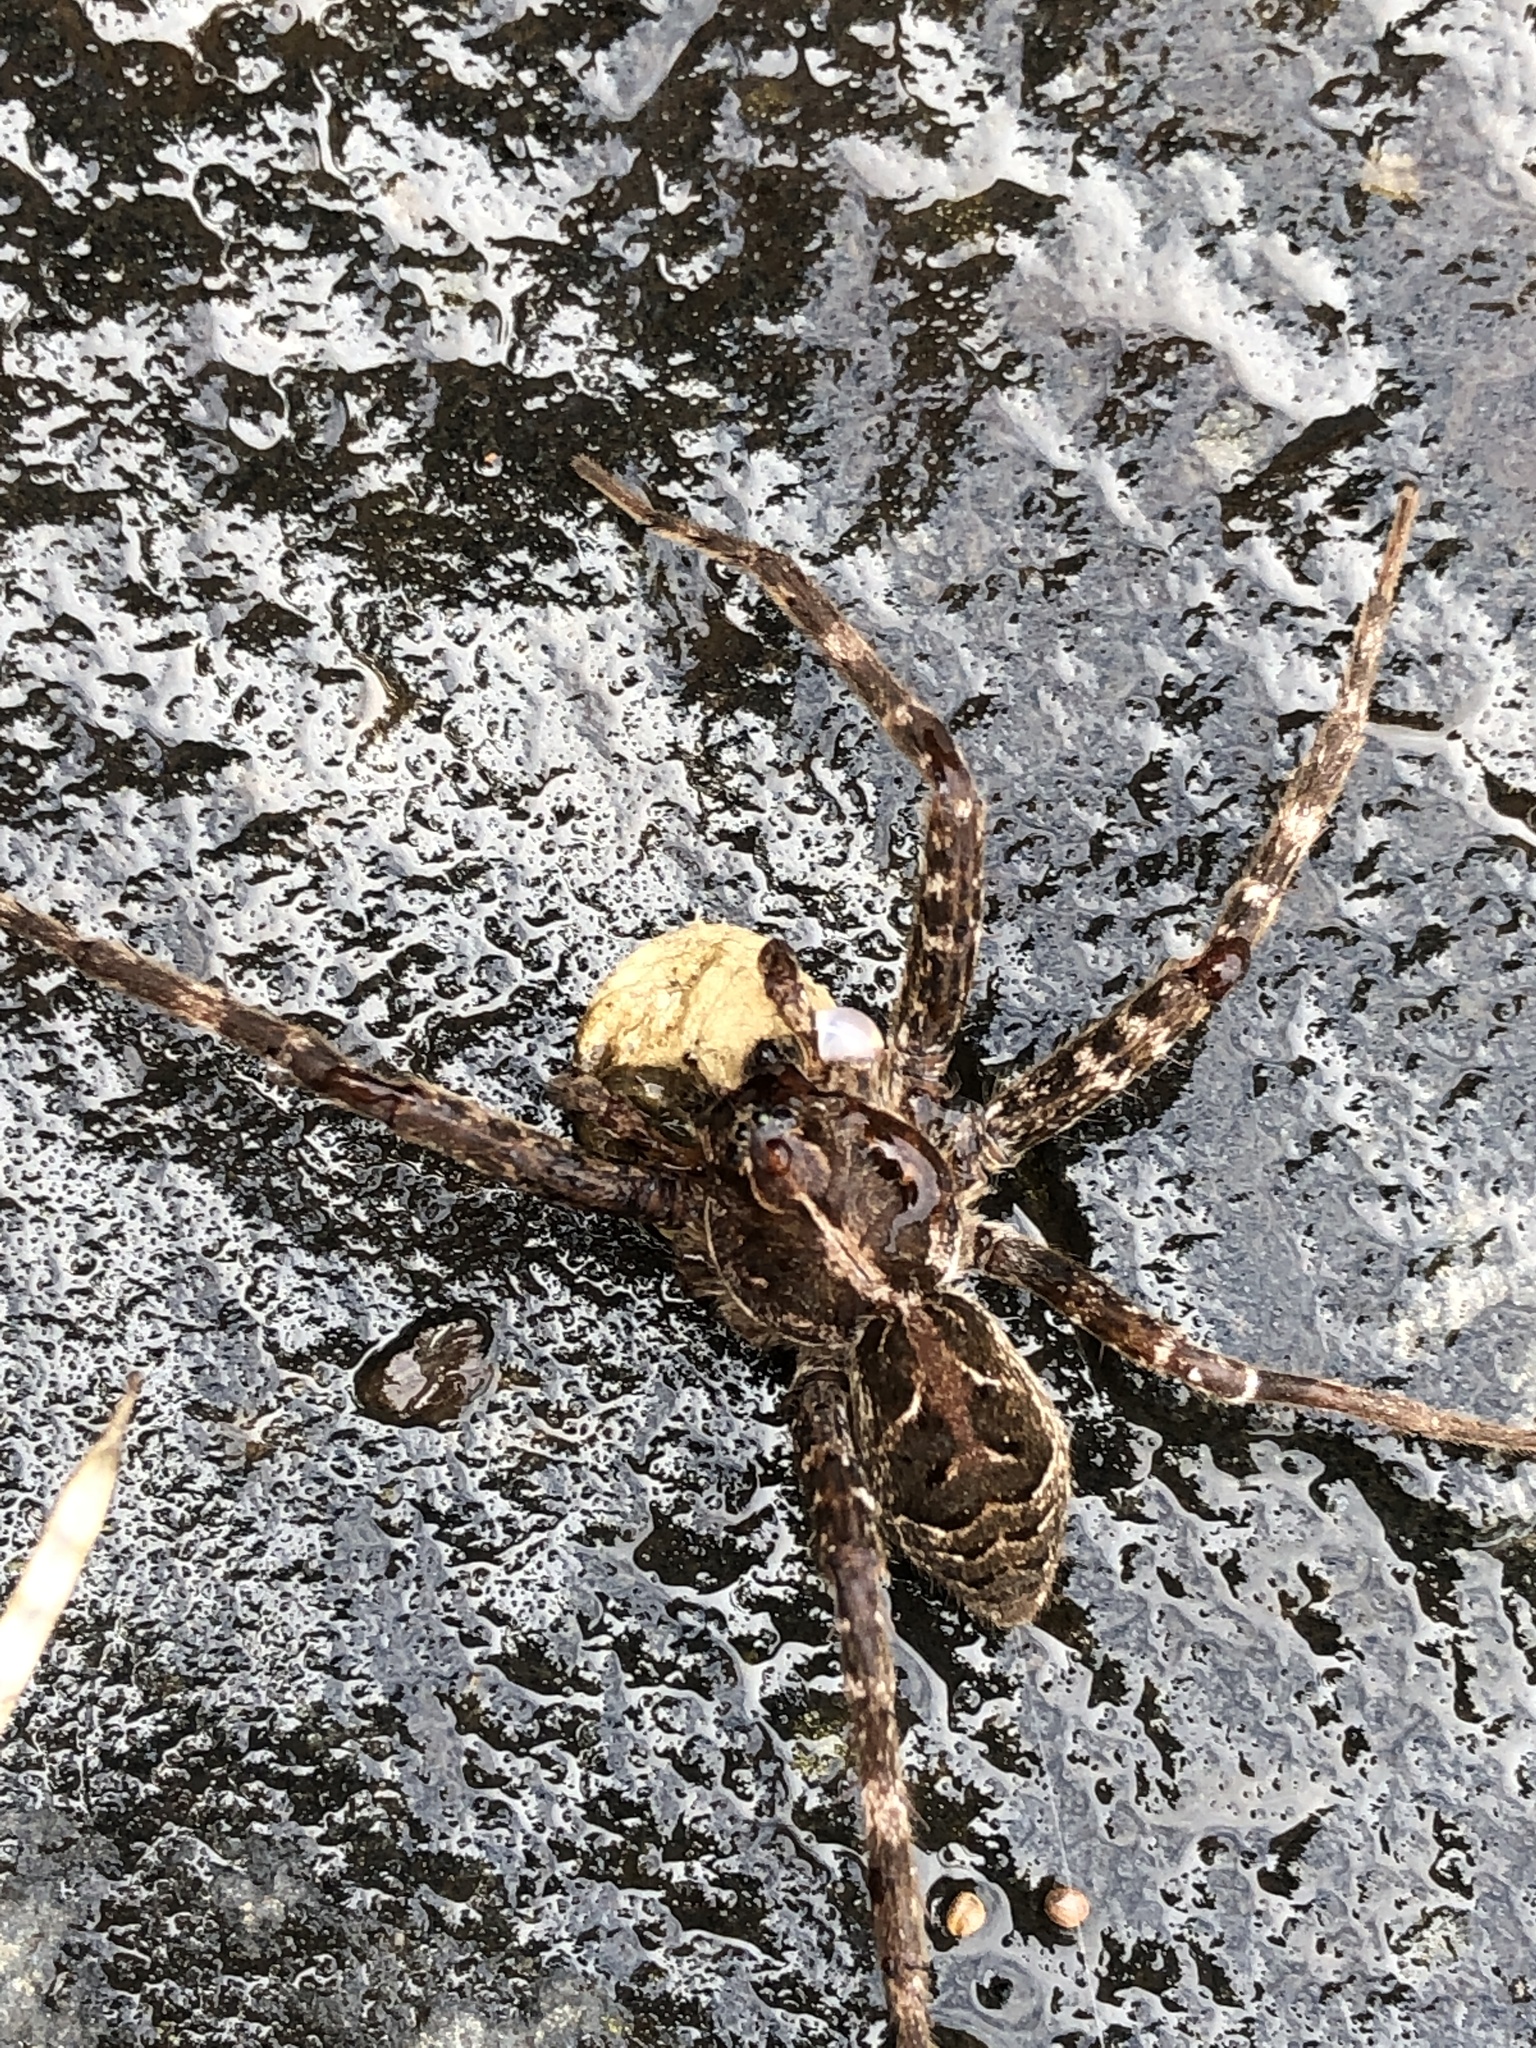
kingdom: Animalia
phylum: Arthropoda
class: Arachnida
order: Araneae
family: Pisauridae
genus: Dolomedes
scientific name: Dolomedes scriptus
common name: Striped fishing spider
